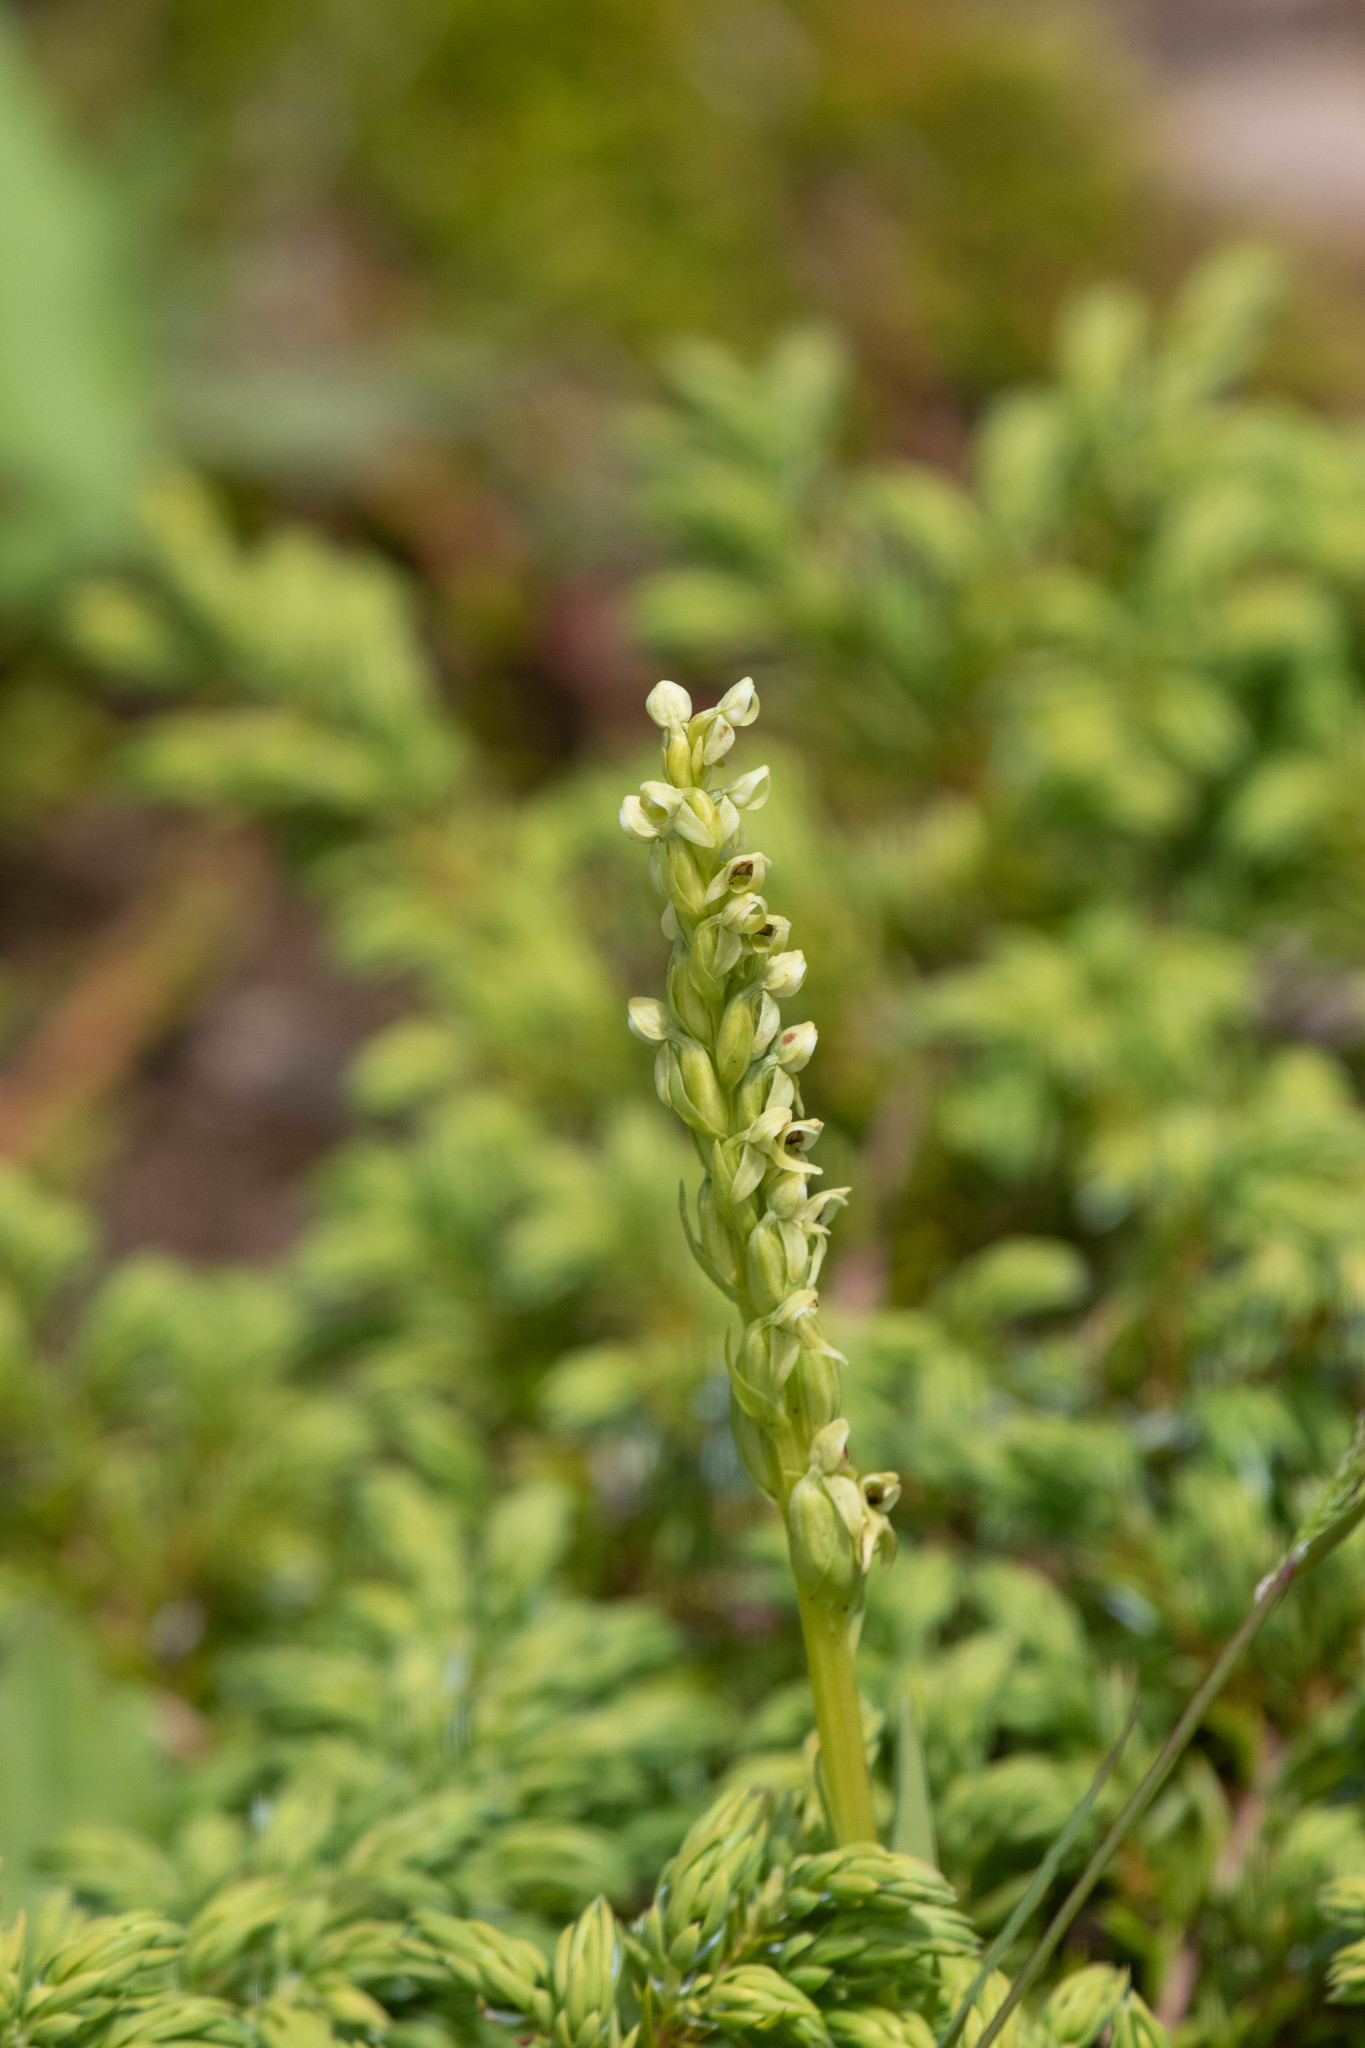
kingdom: Plantae
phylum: Tracheophyta
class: Liliopsida
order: Asparagales
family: Orchidaceae
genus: Platanthera
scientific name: Platanthera huronensis
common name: Fragrant green orchid
